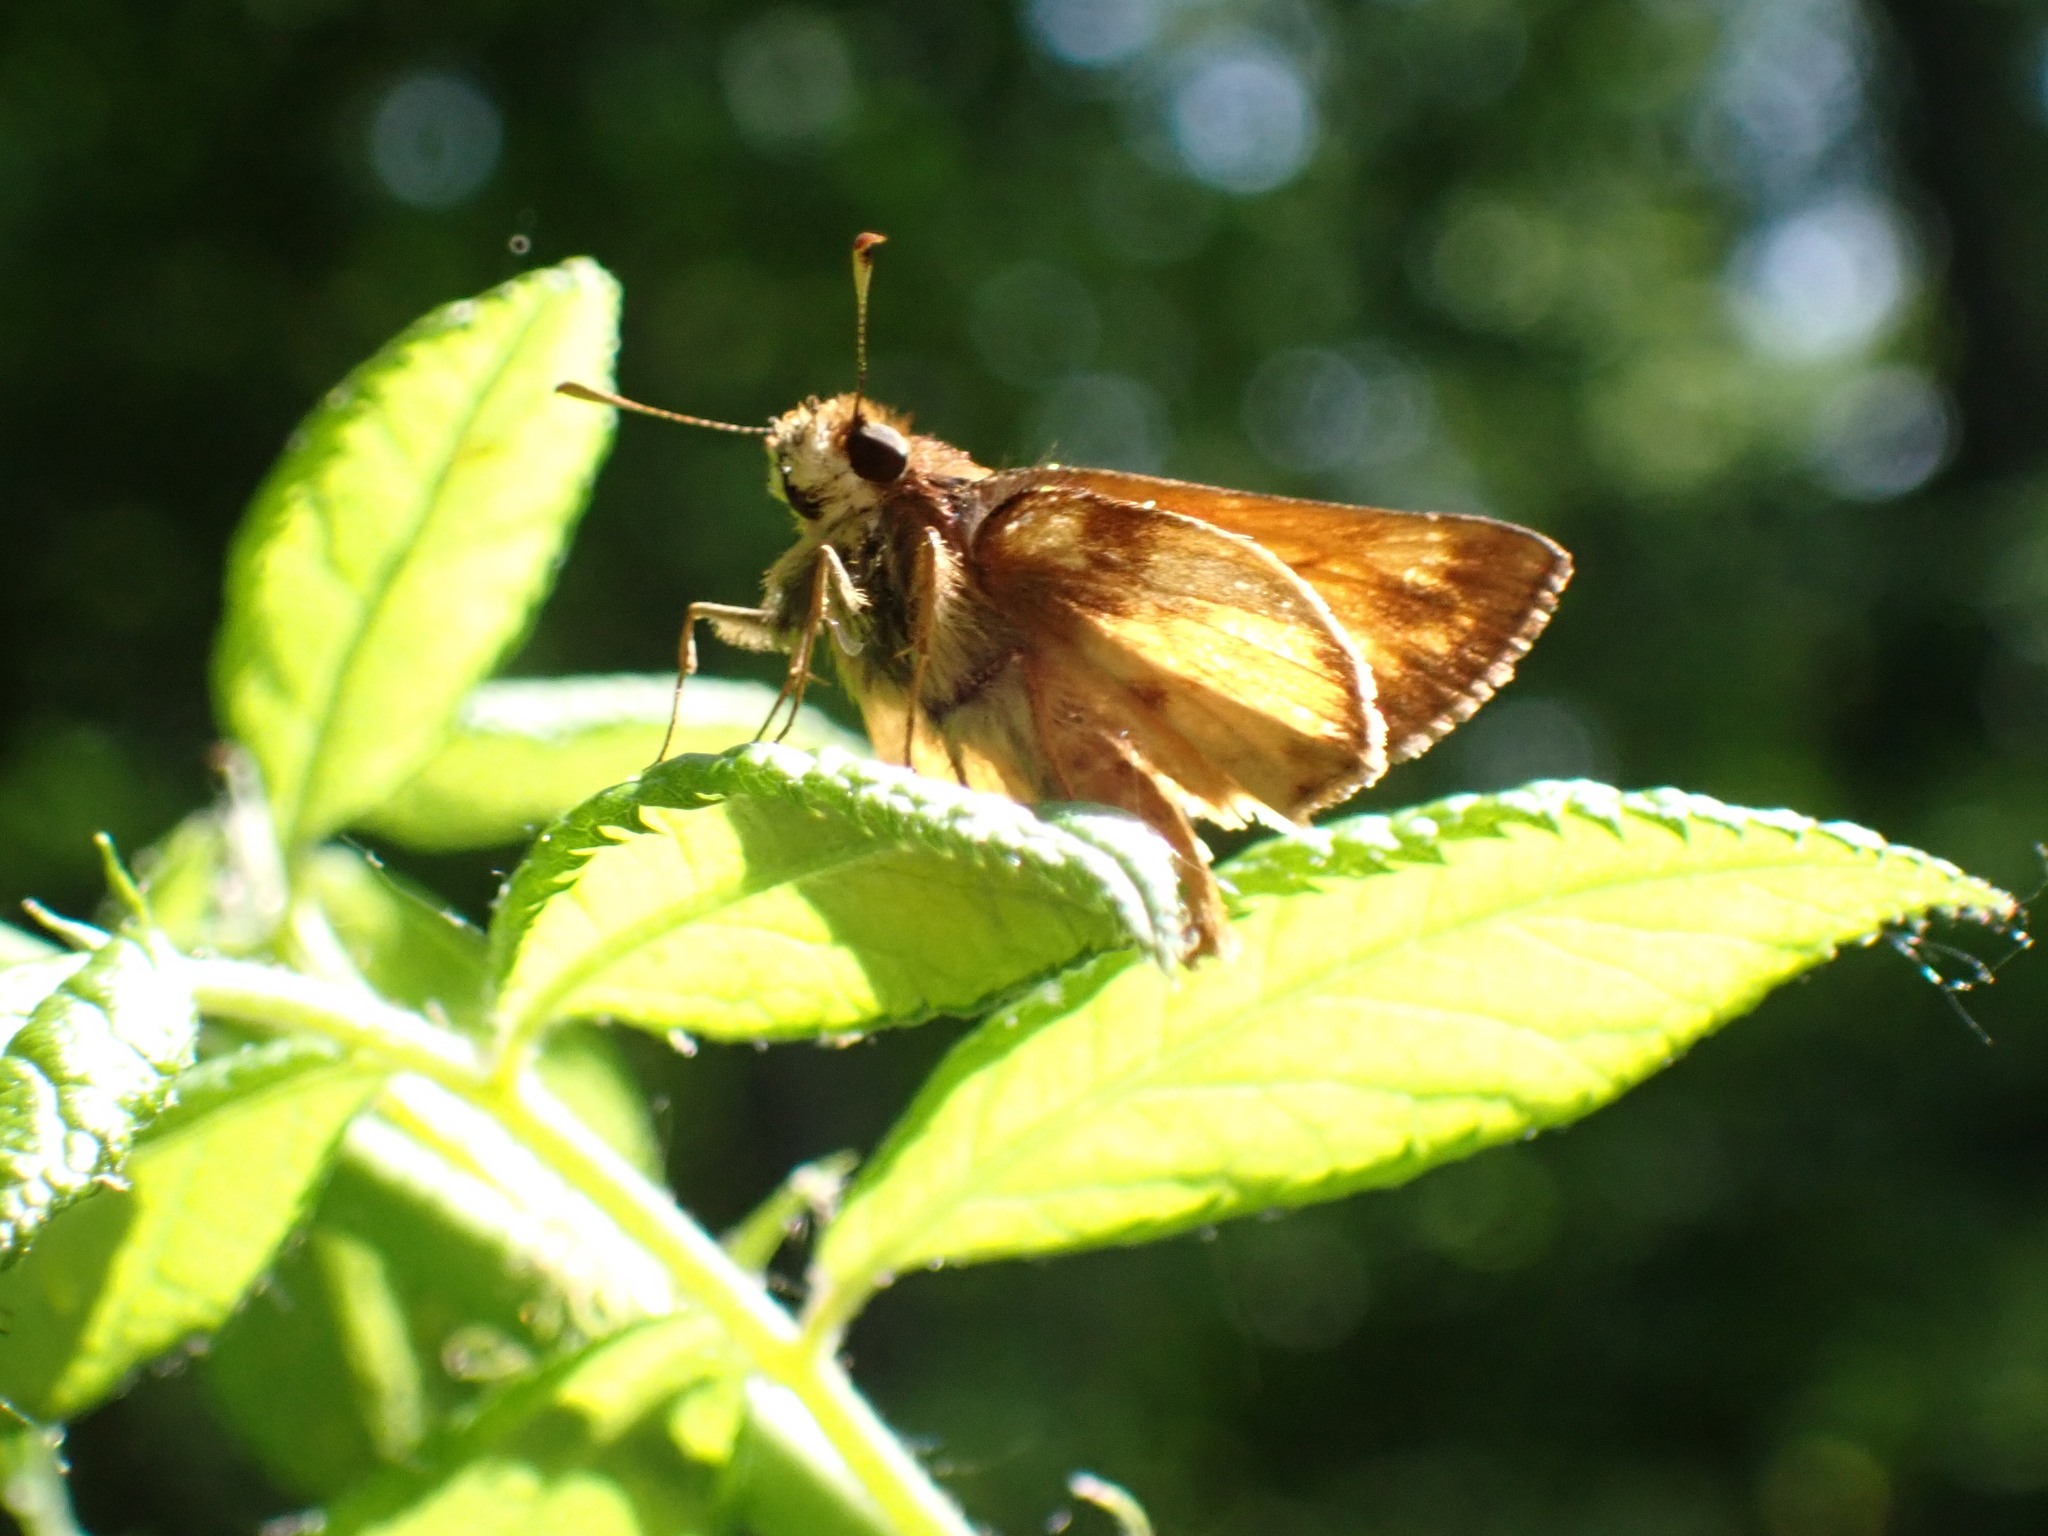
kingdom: Animalia
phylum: Arthropoda
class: Insecta
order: Lepidoptera
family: Hesperiidae
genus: Lon
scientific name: Lon zabulon
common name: Zabulon skipper
